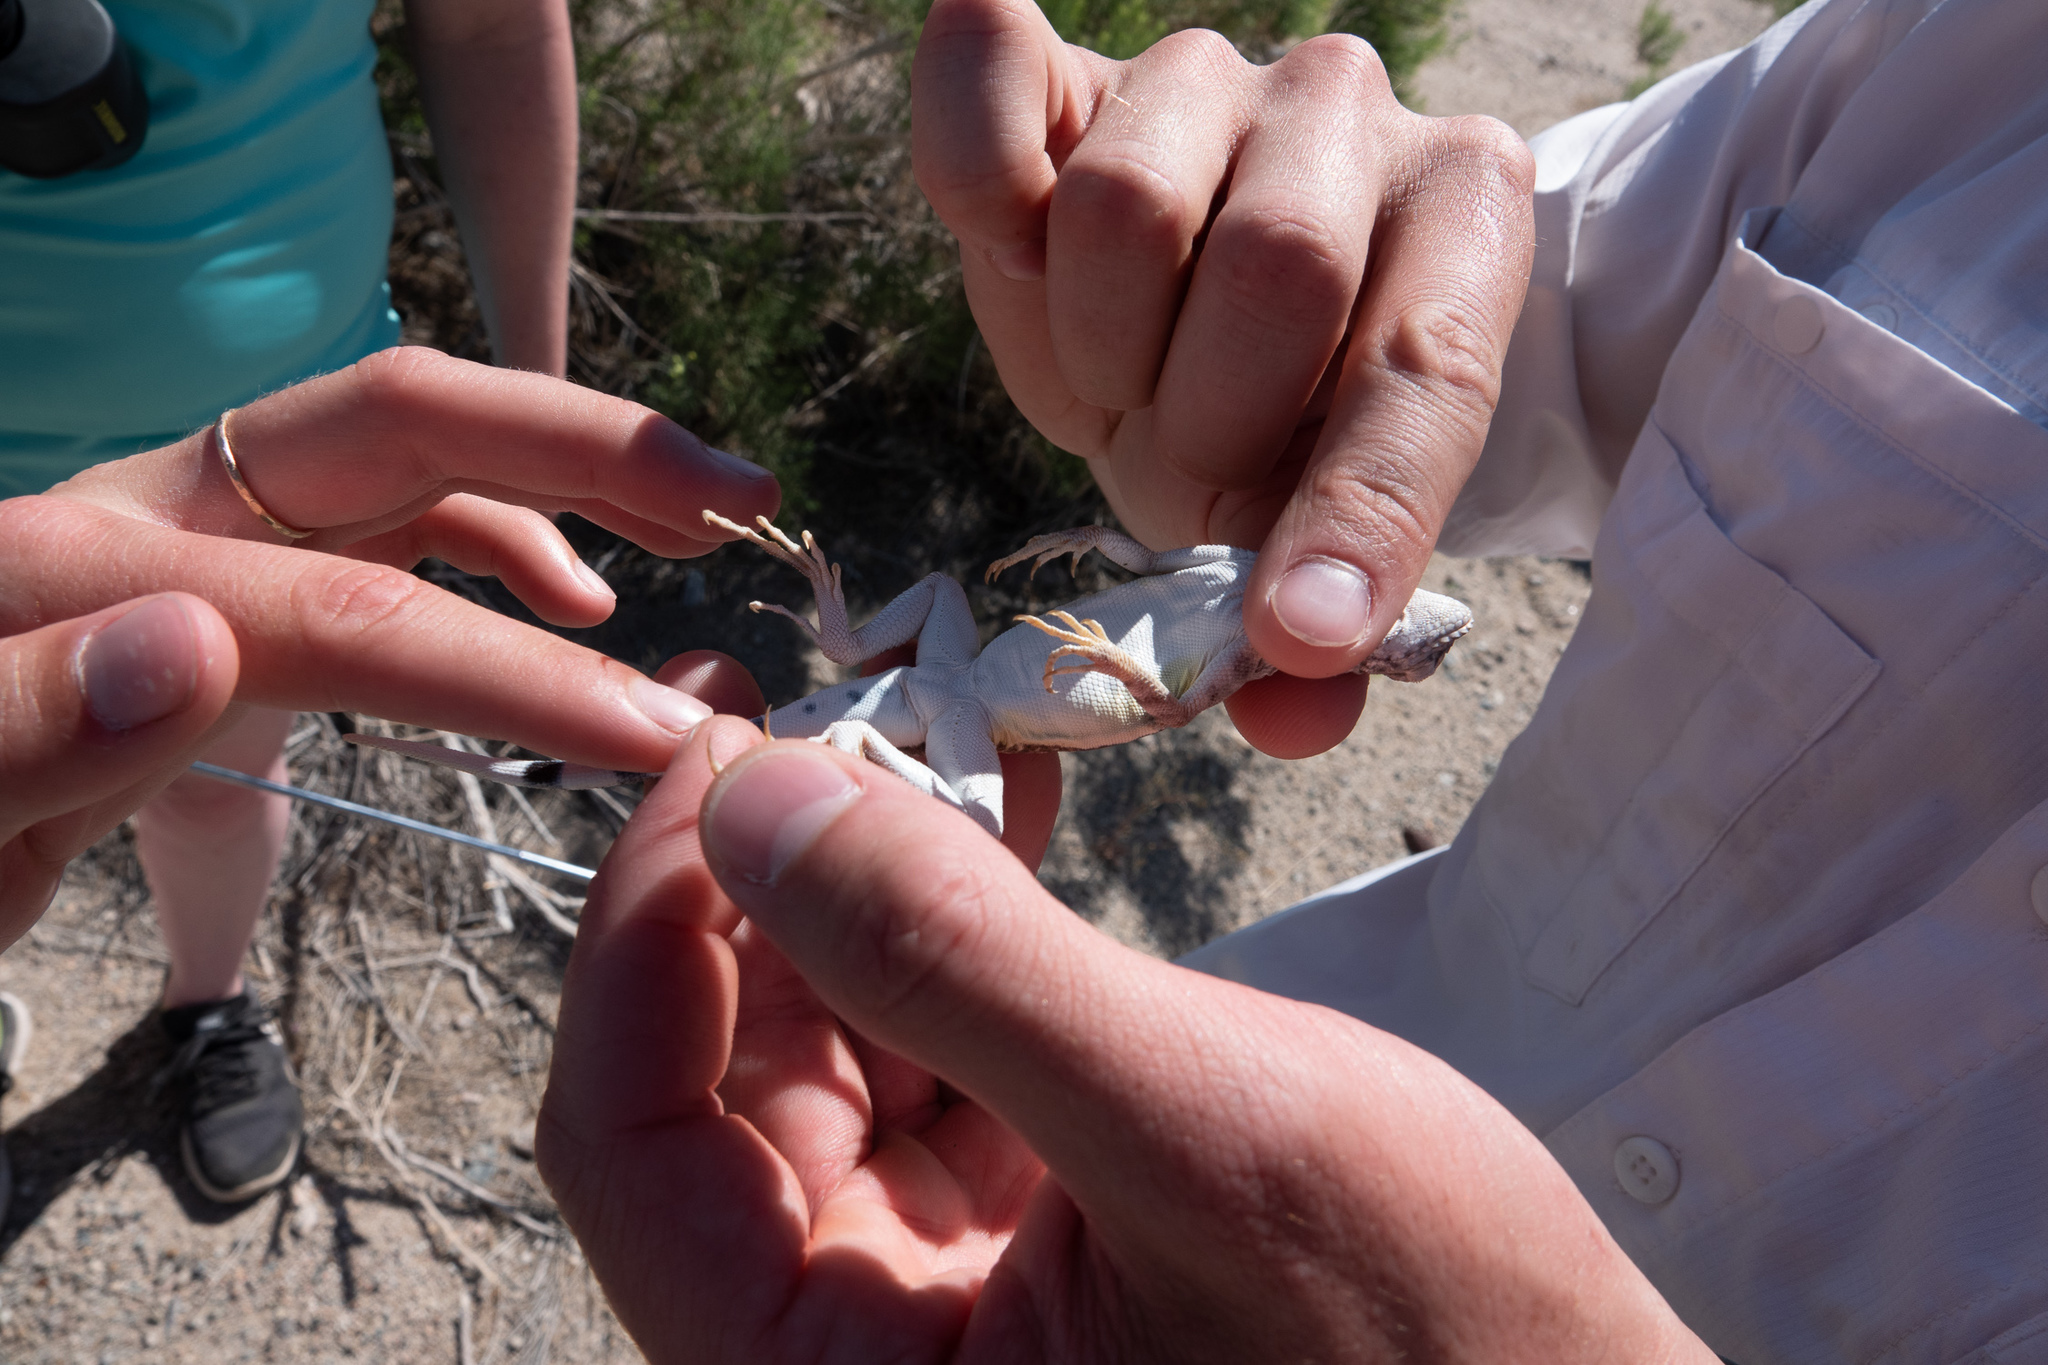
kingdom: Animalia
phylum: Chordata
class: Squamata
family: Phrynosomatidae
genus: Callisaurus
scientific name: Callisaurus draconoides
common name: Zebra-tailed lizard
